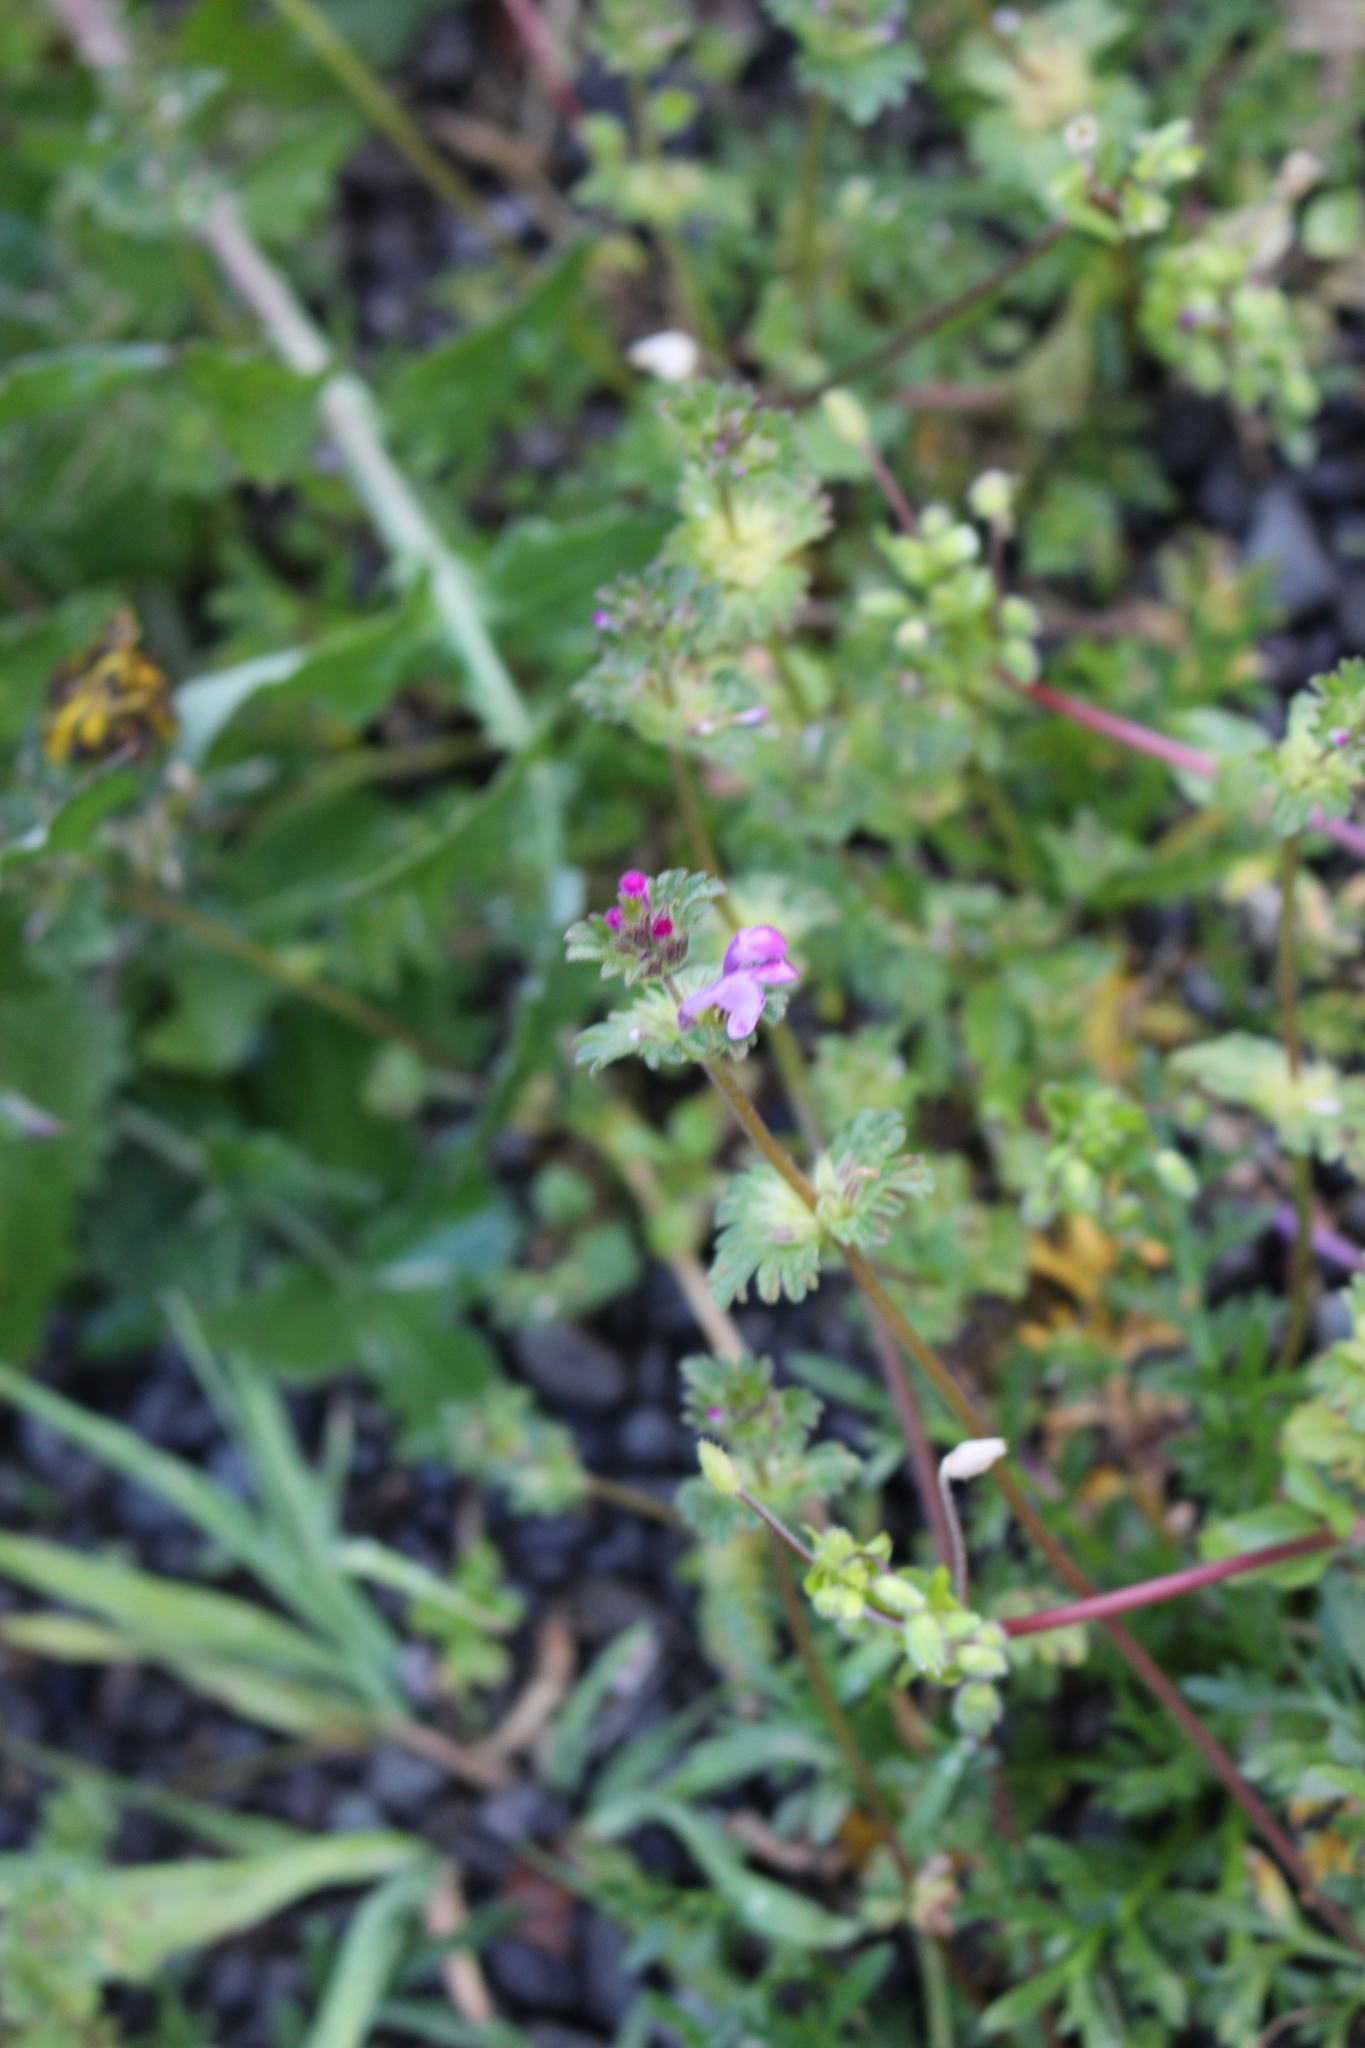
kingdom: Plantae
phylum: Tracheophyta
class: Magnoliopsida
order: Lamiales
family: Lamiaceae
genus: Lamium
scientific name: Lamium amplexicaule
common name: Henbit dead-nettle
